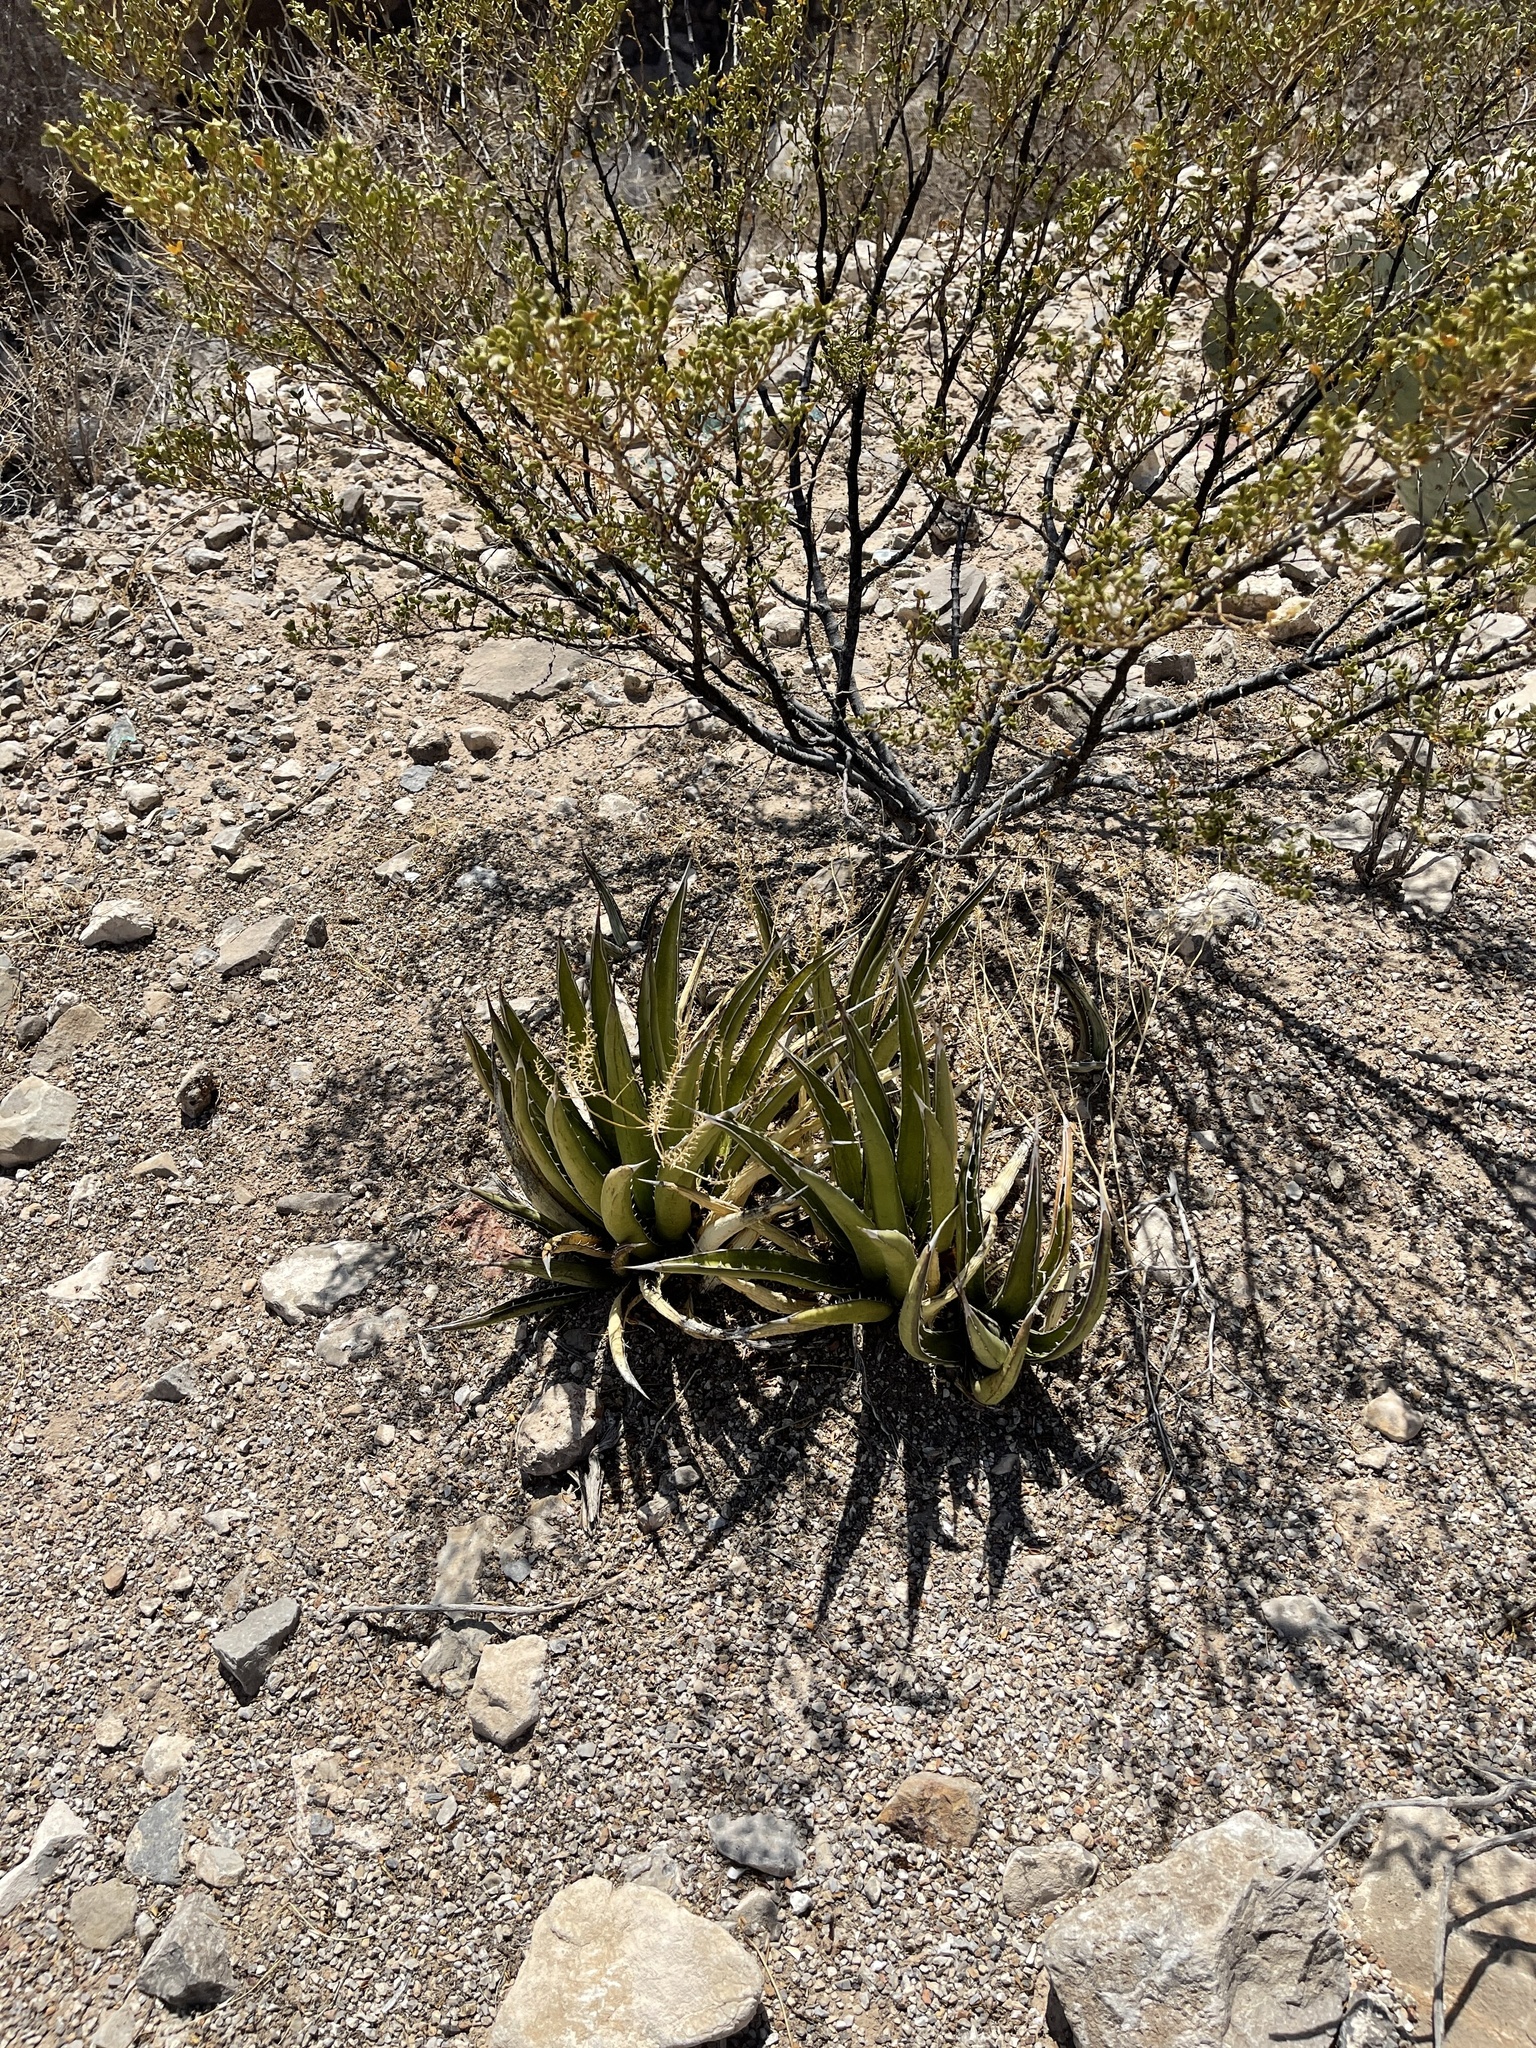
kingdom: Plantae
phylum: Tracheophyta
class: Liliopsida
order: Asparagales
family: Asparagaceae
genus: Agave
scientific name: Agave lechuguilla
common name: Lecheguilla agave
